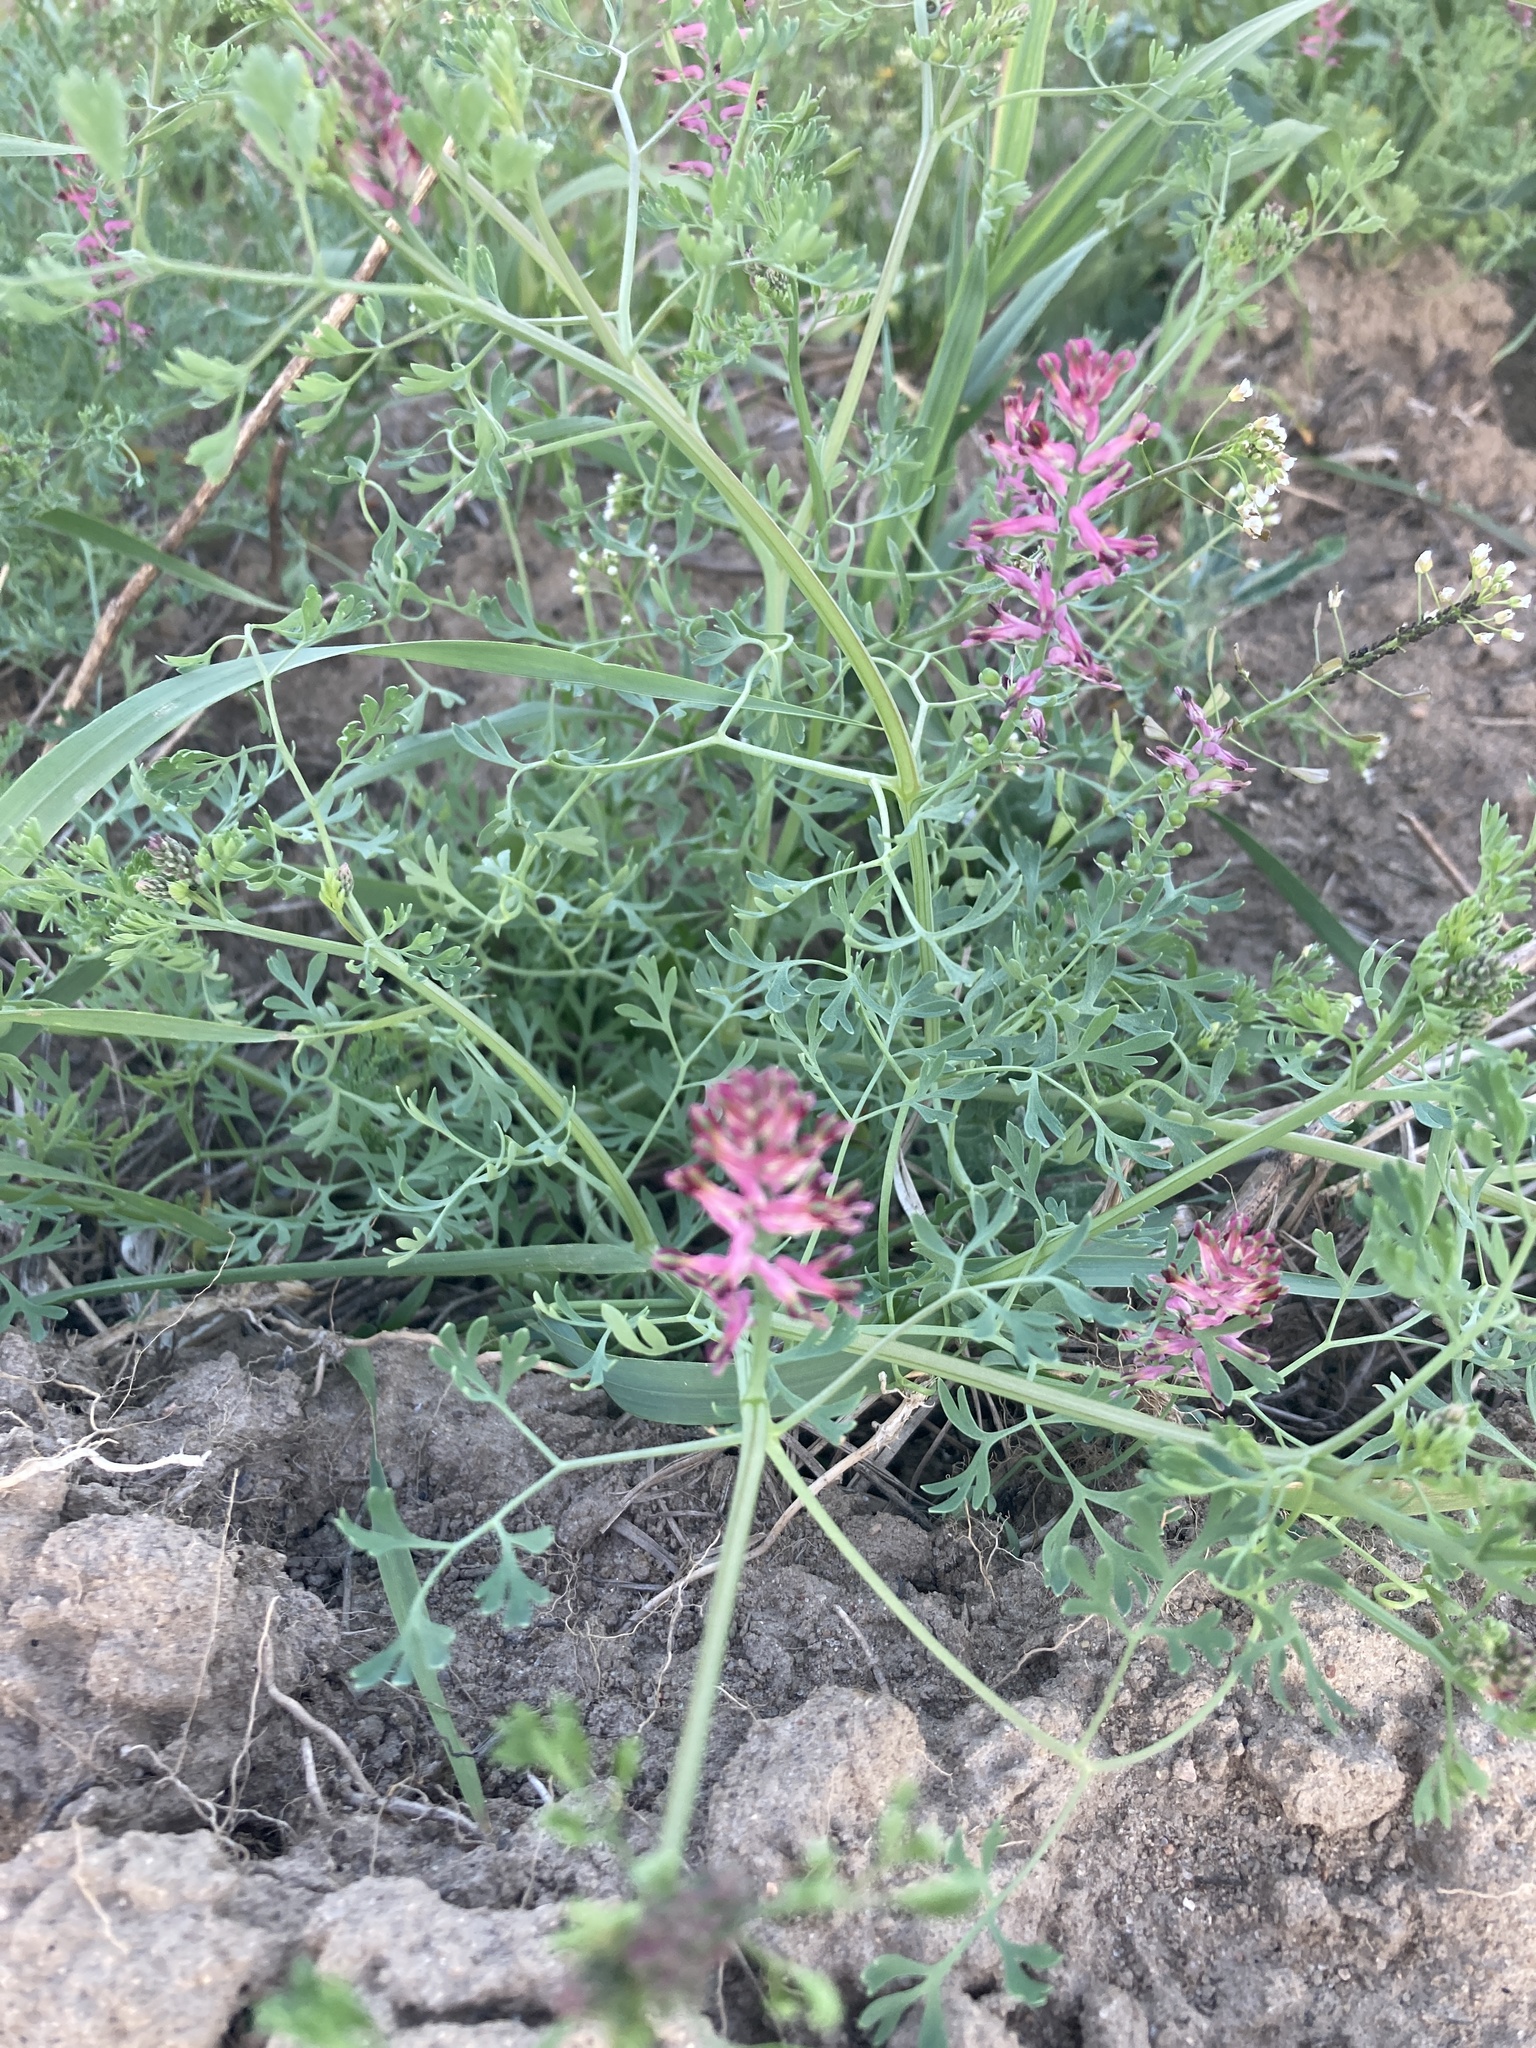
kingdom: Plantae
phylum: Tracheophyta
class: Magnoliopsida
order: Ranunculales
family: Papaveraceae
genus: Fumaria
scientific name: Fumaria officinalis
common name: Common fumitory
